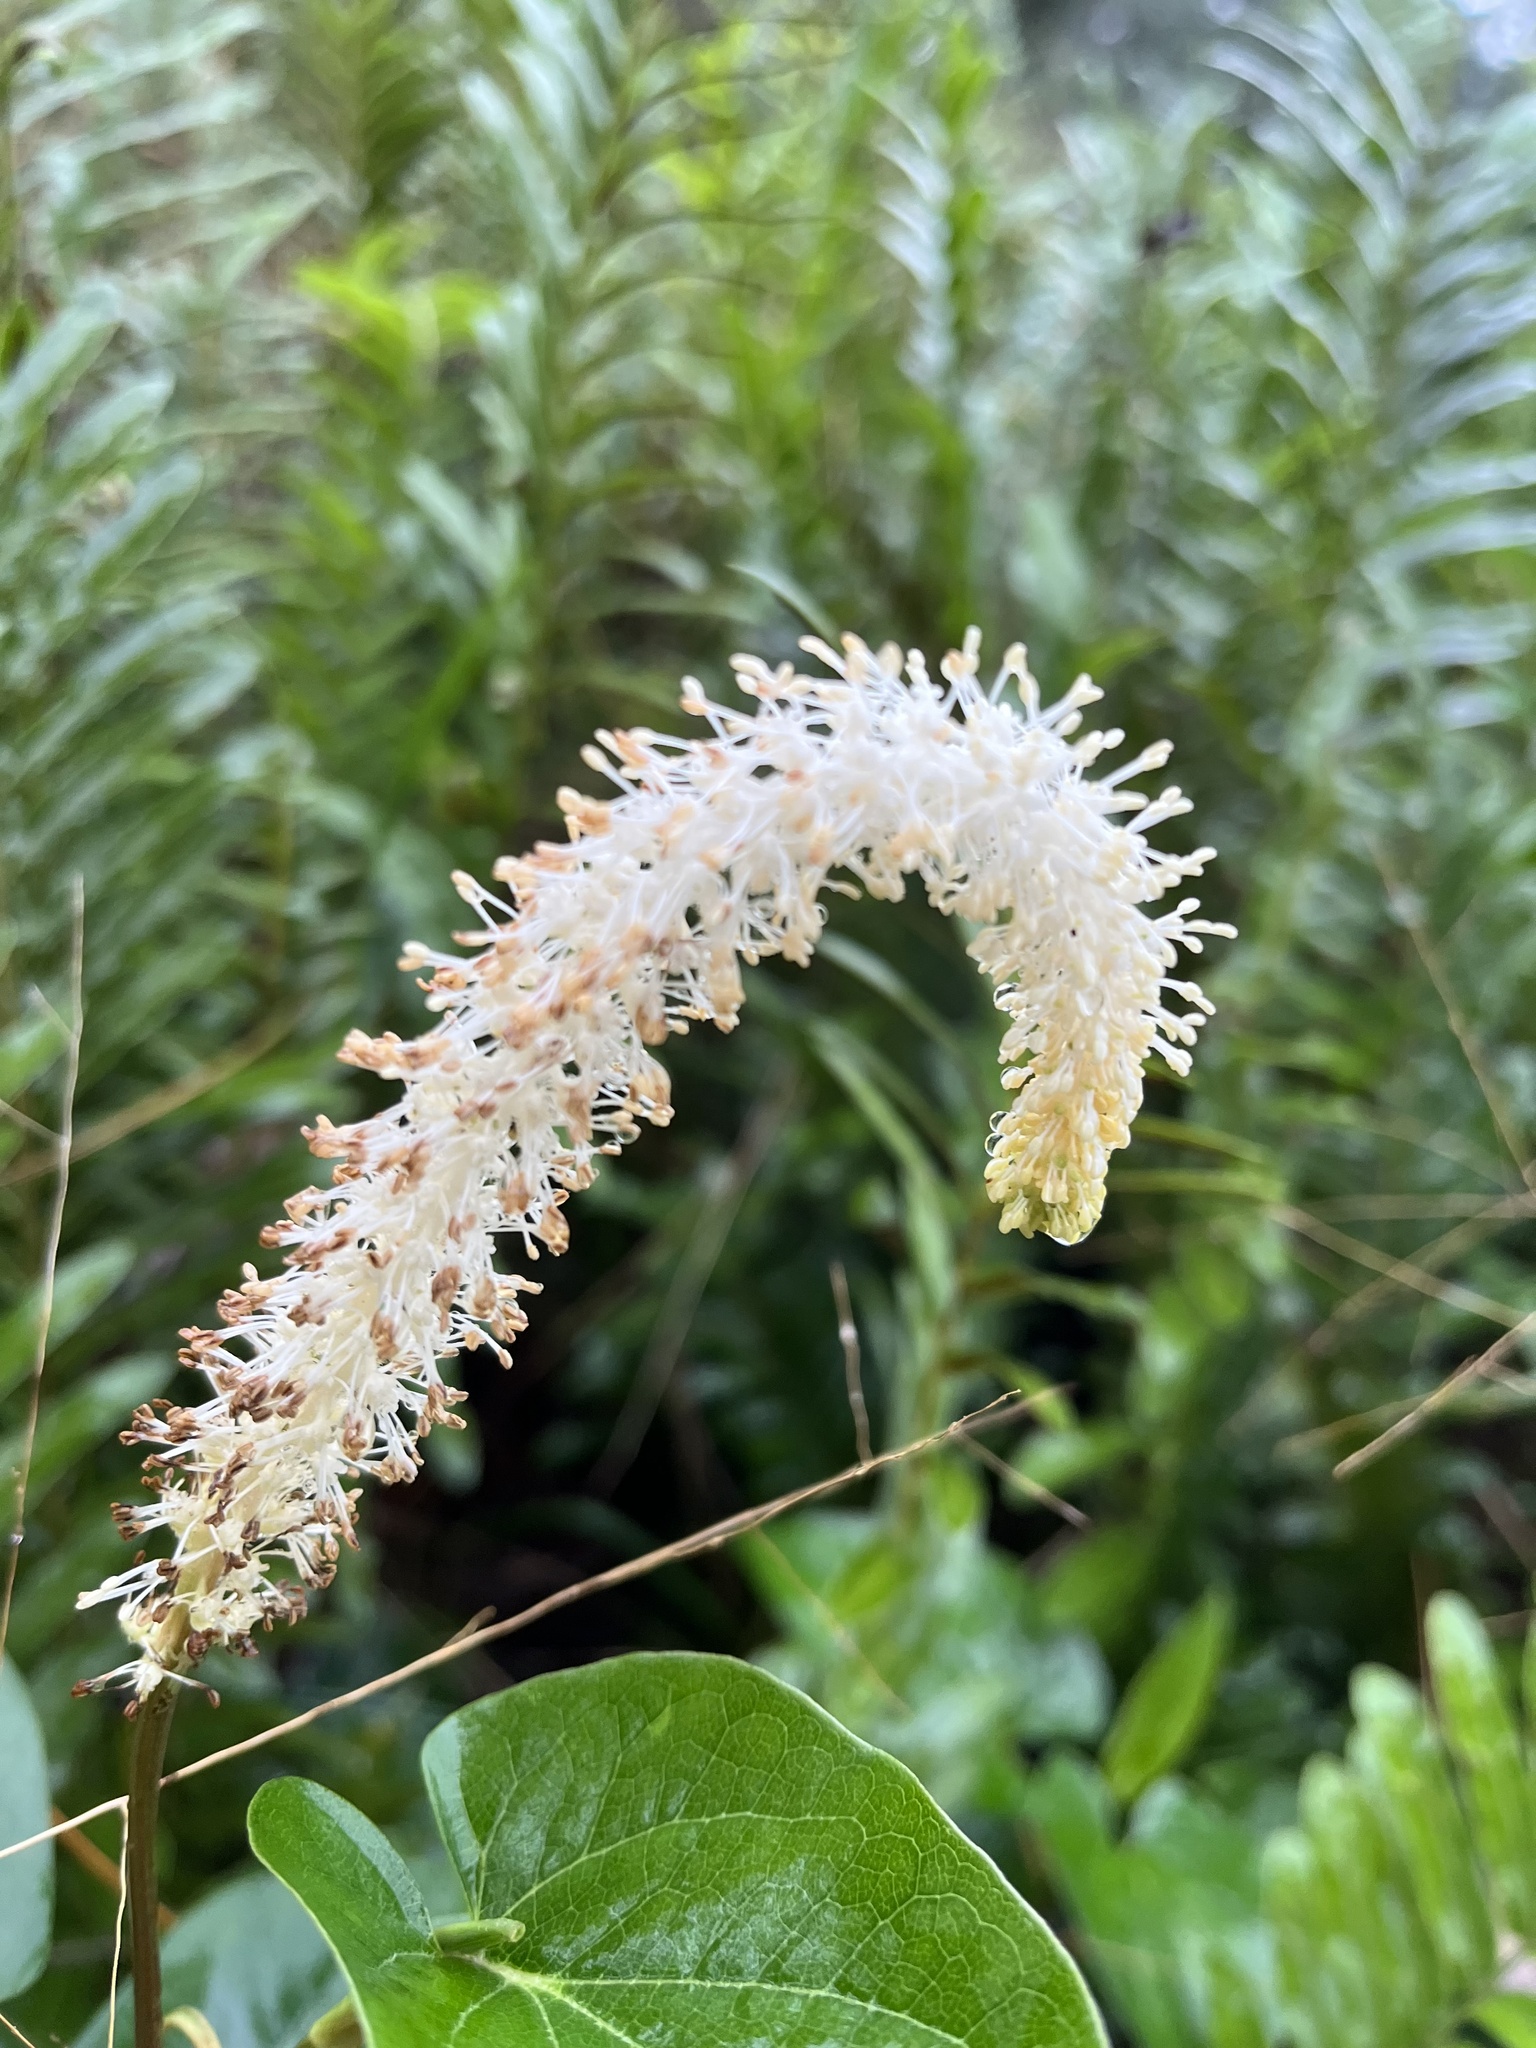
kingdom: Plantae
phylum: Tracheophyta
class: Magnoliopsida
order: Piperales
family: Saururaceae
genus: Saururus
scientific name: Saururus cernuus
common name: Lizard's-tail
